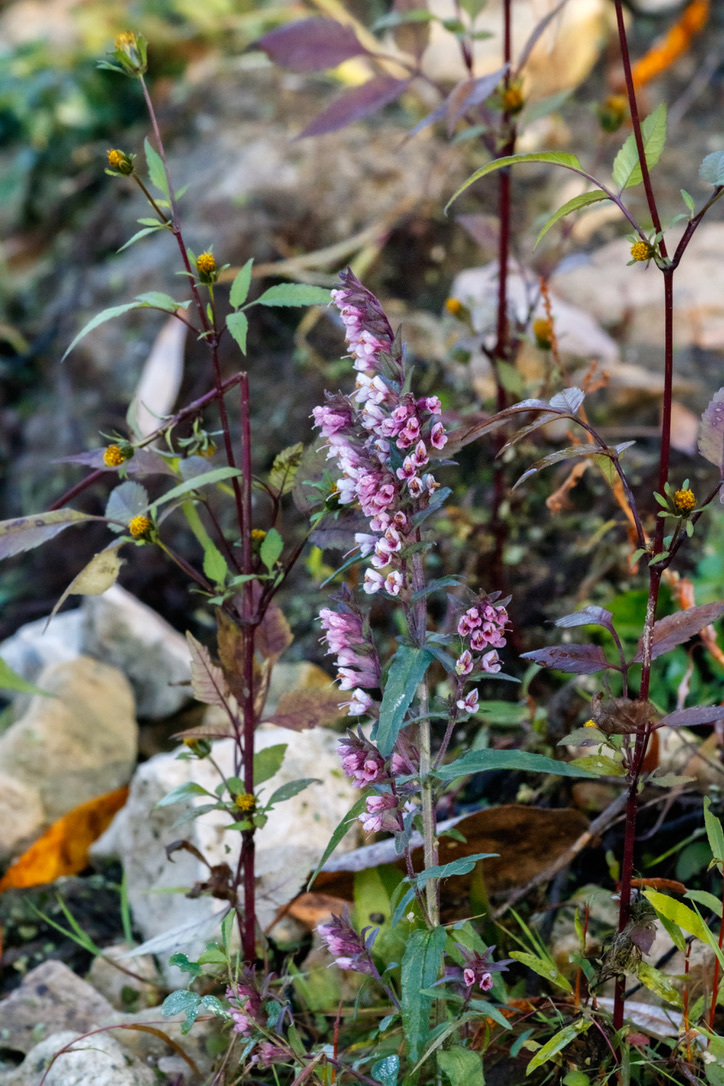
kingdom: Plantae
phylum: Tracheophyta
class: Magnoliopsida
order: Lamiales
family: Orobanchaceae
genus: Odontites
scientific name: Odontites vulgaris
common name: Broomrape
